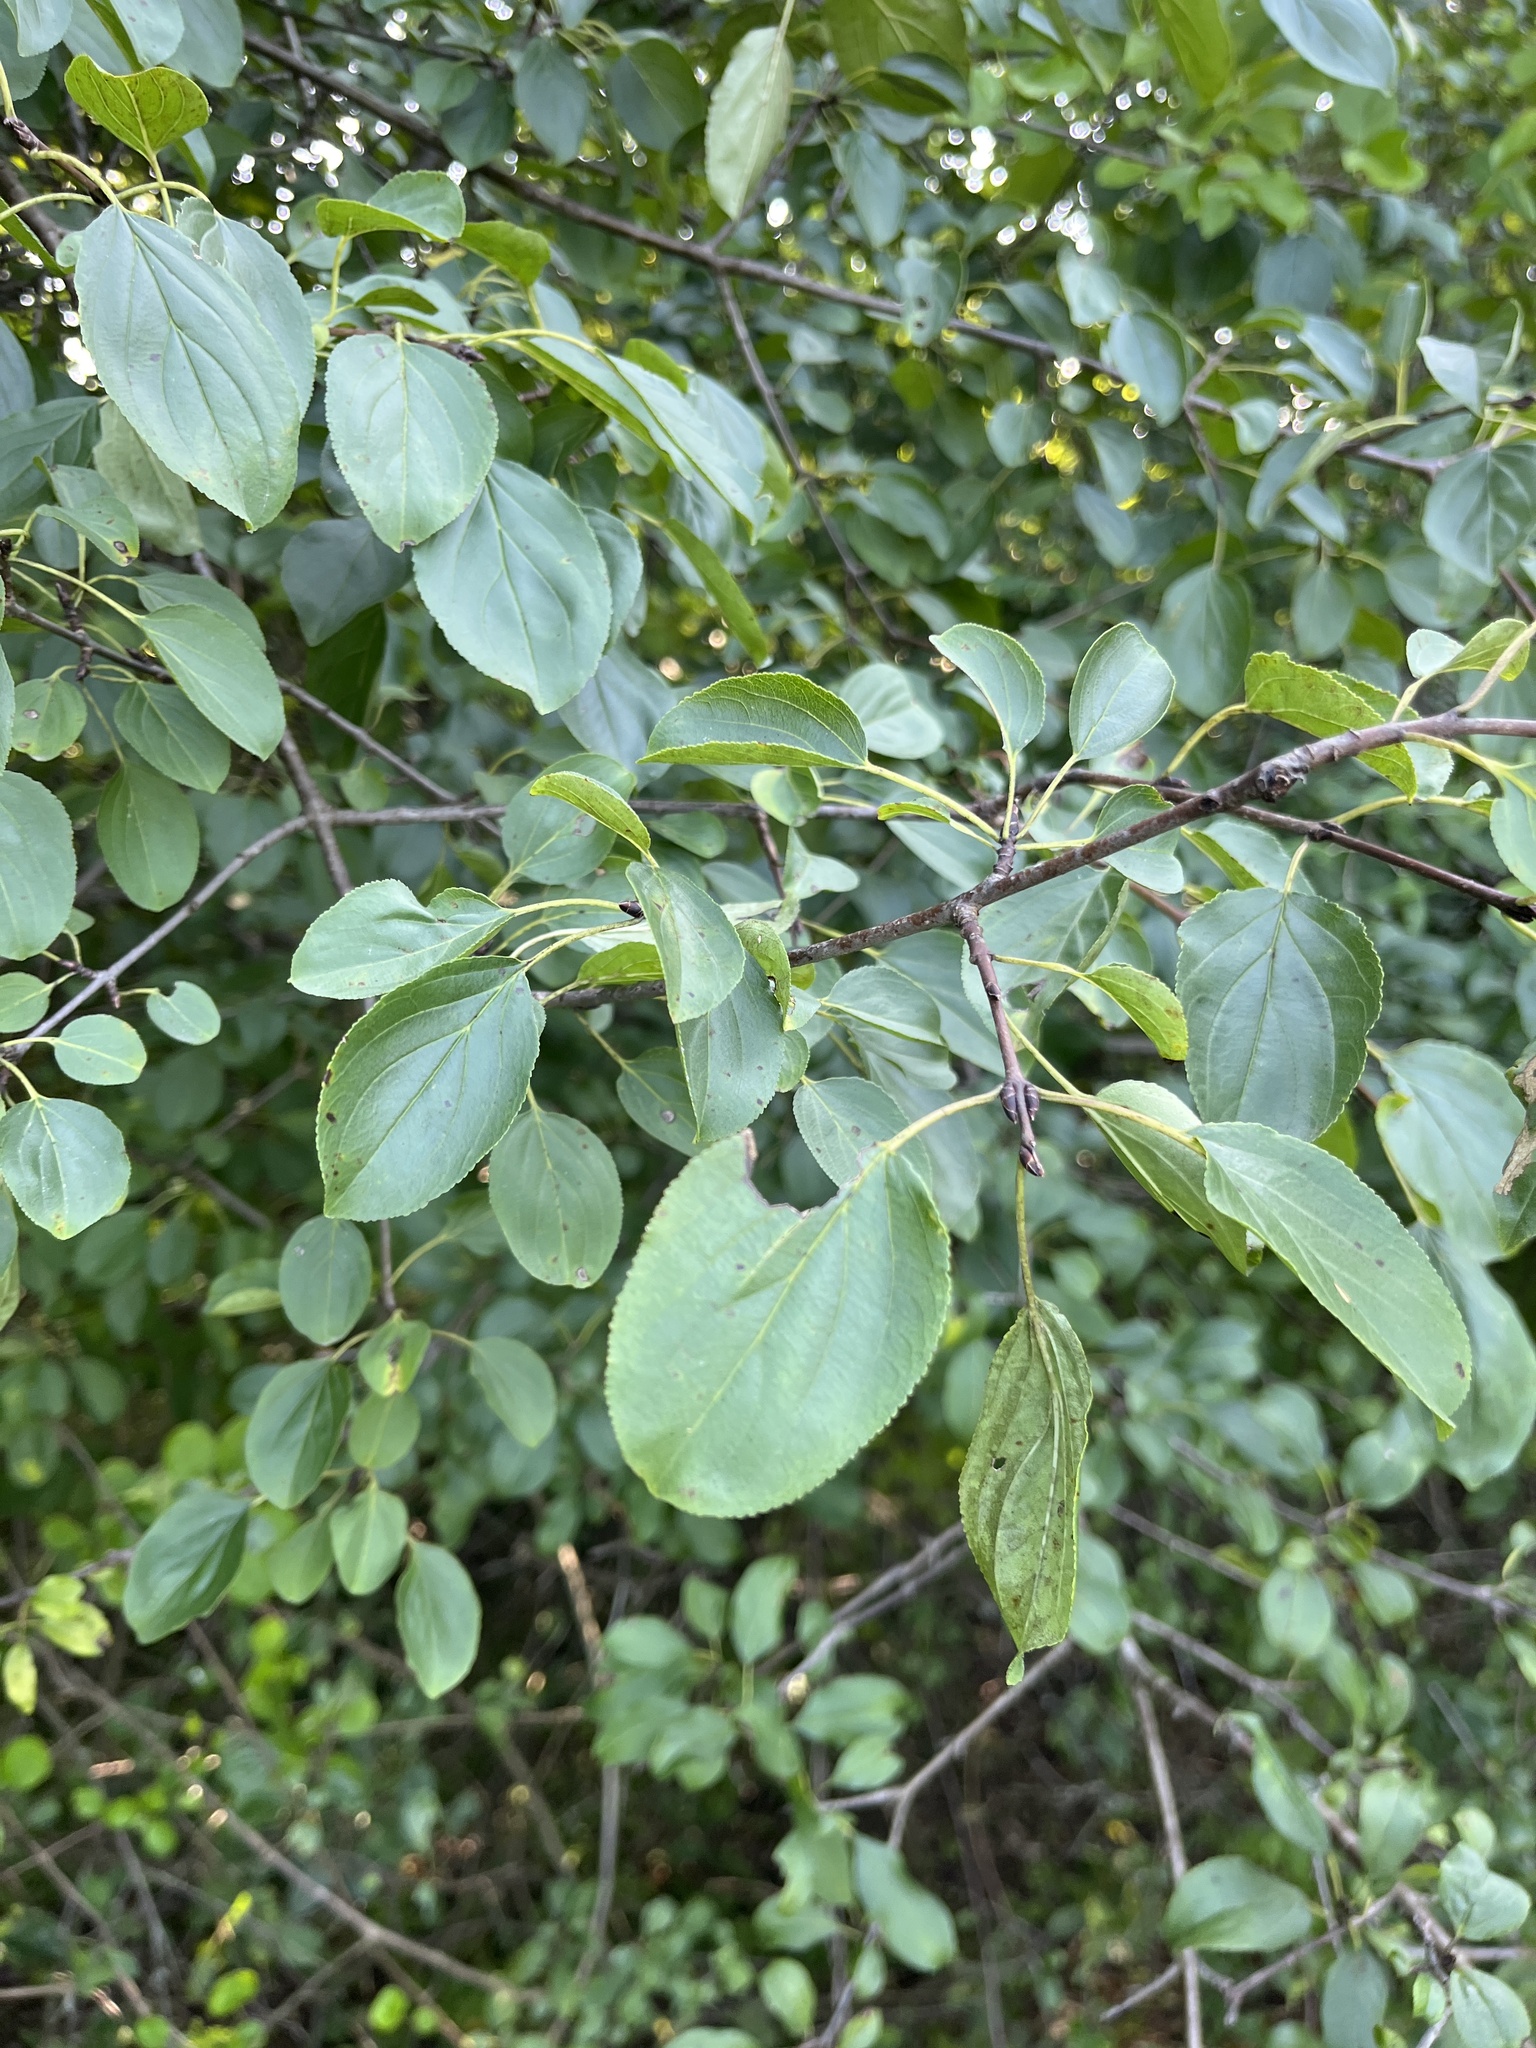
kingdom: Plantae
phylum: Tracheophyta
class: Magnoliopsida
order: Rosales
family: Rhamnaceae
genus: Rhamnus
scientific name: Rhamnus cathartica
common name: Common buckthorn
